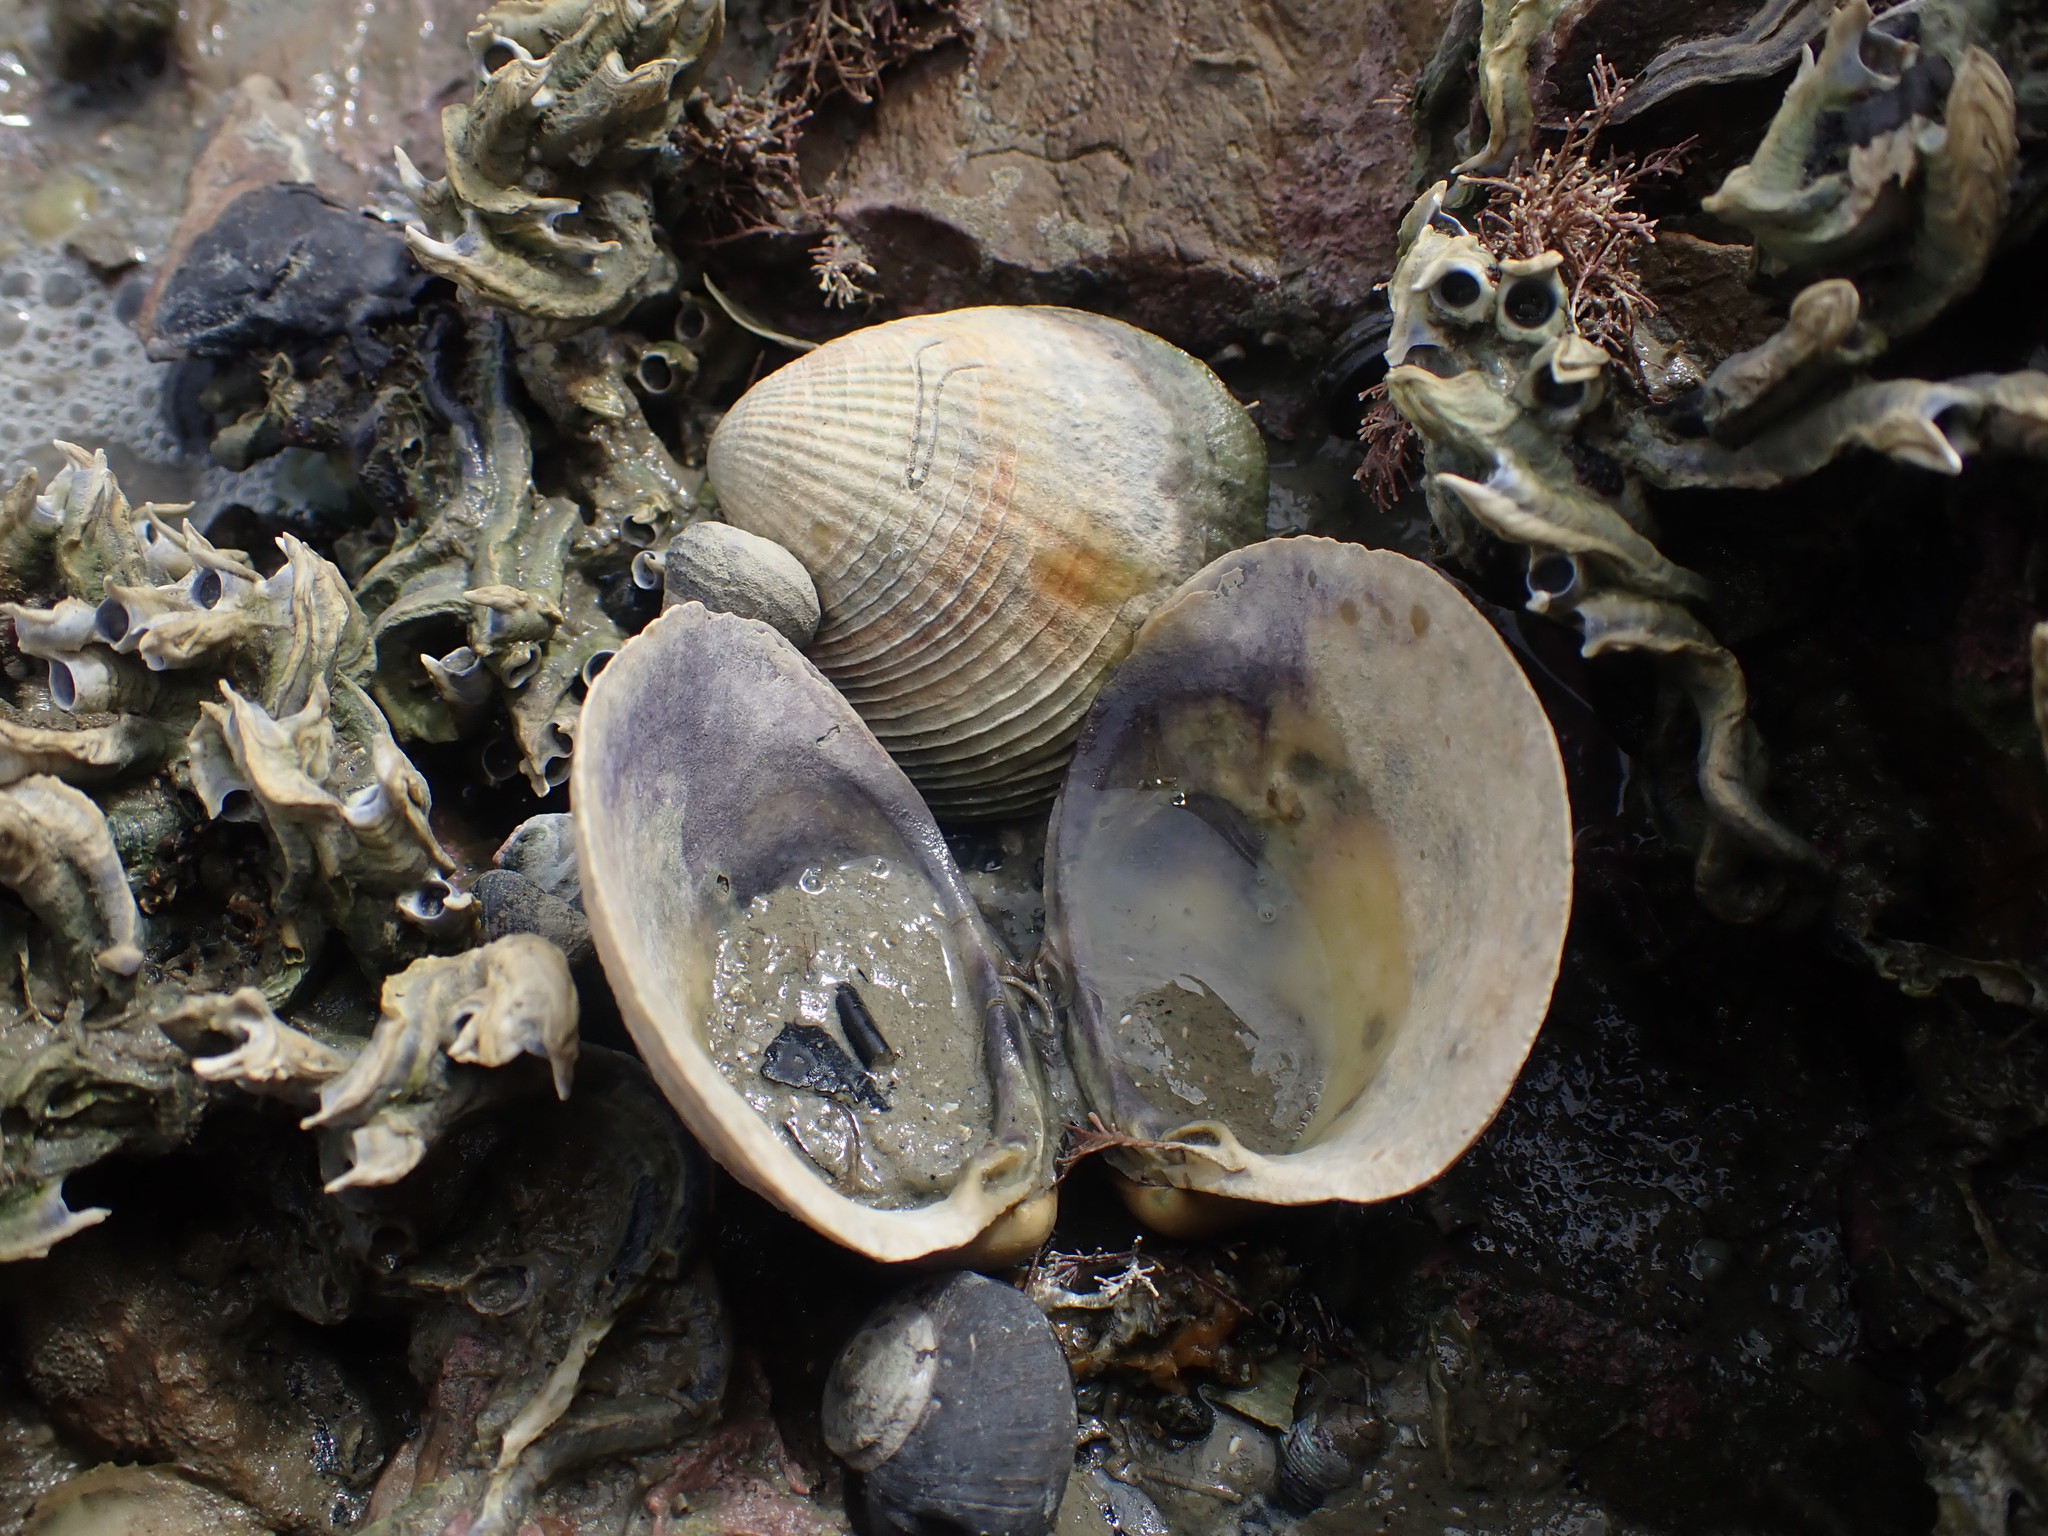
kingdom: Animalia
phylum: Mollusca
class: Bivalvia
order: Venerida
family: Veneridae
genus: Austrovenus
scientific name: Austrovenus stutchburyi
